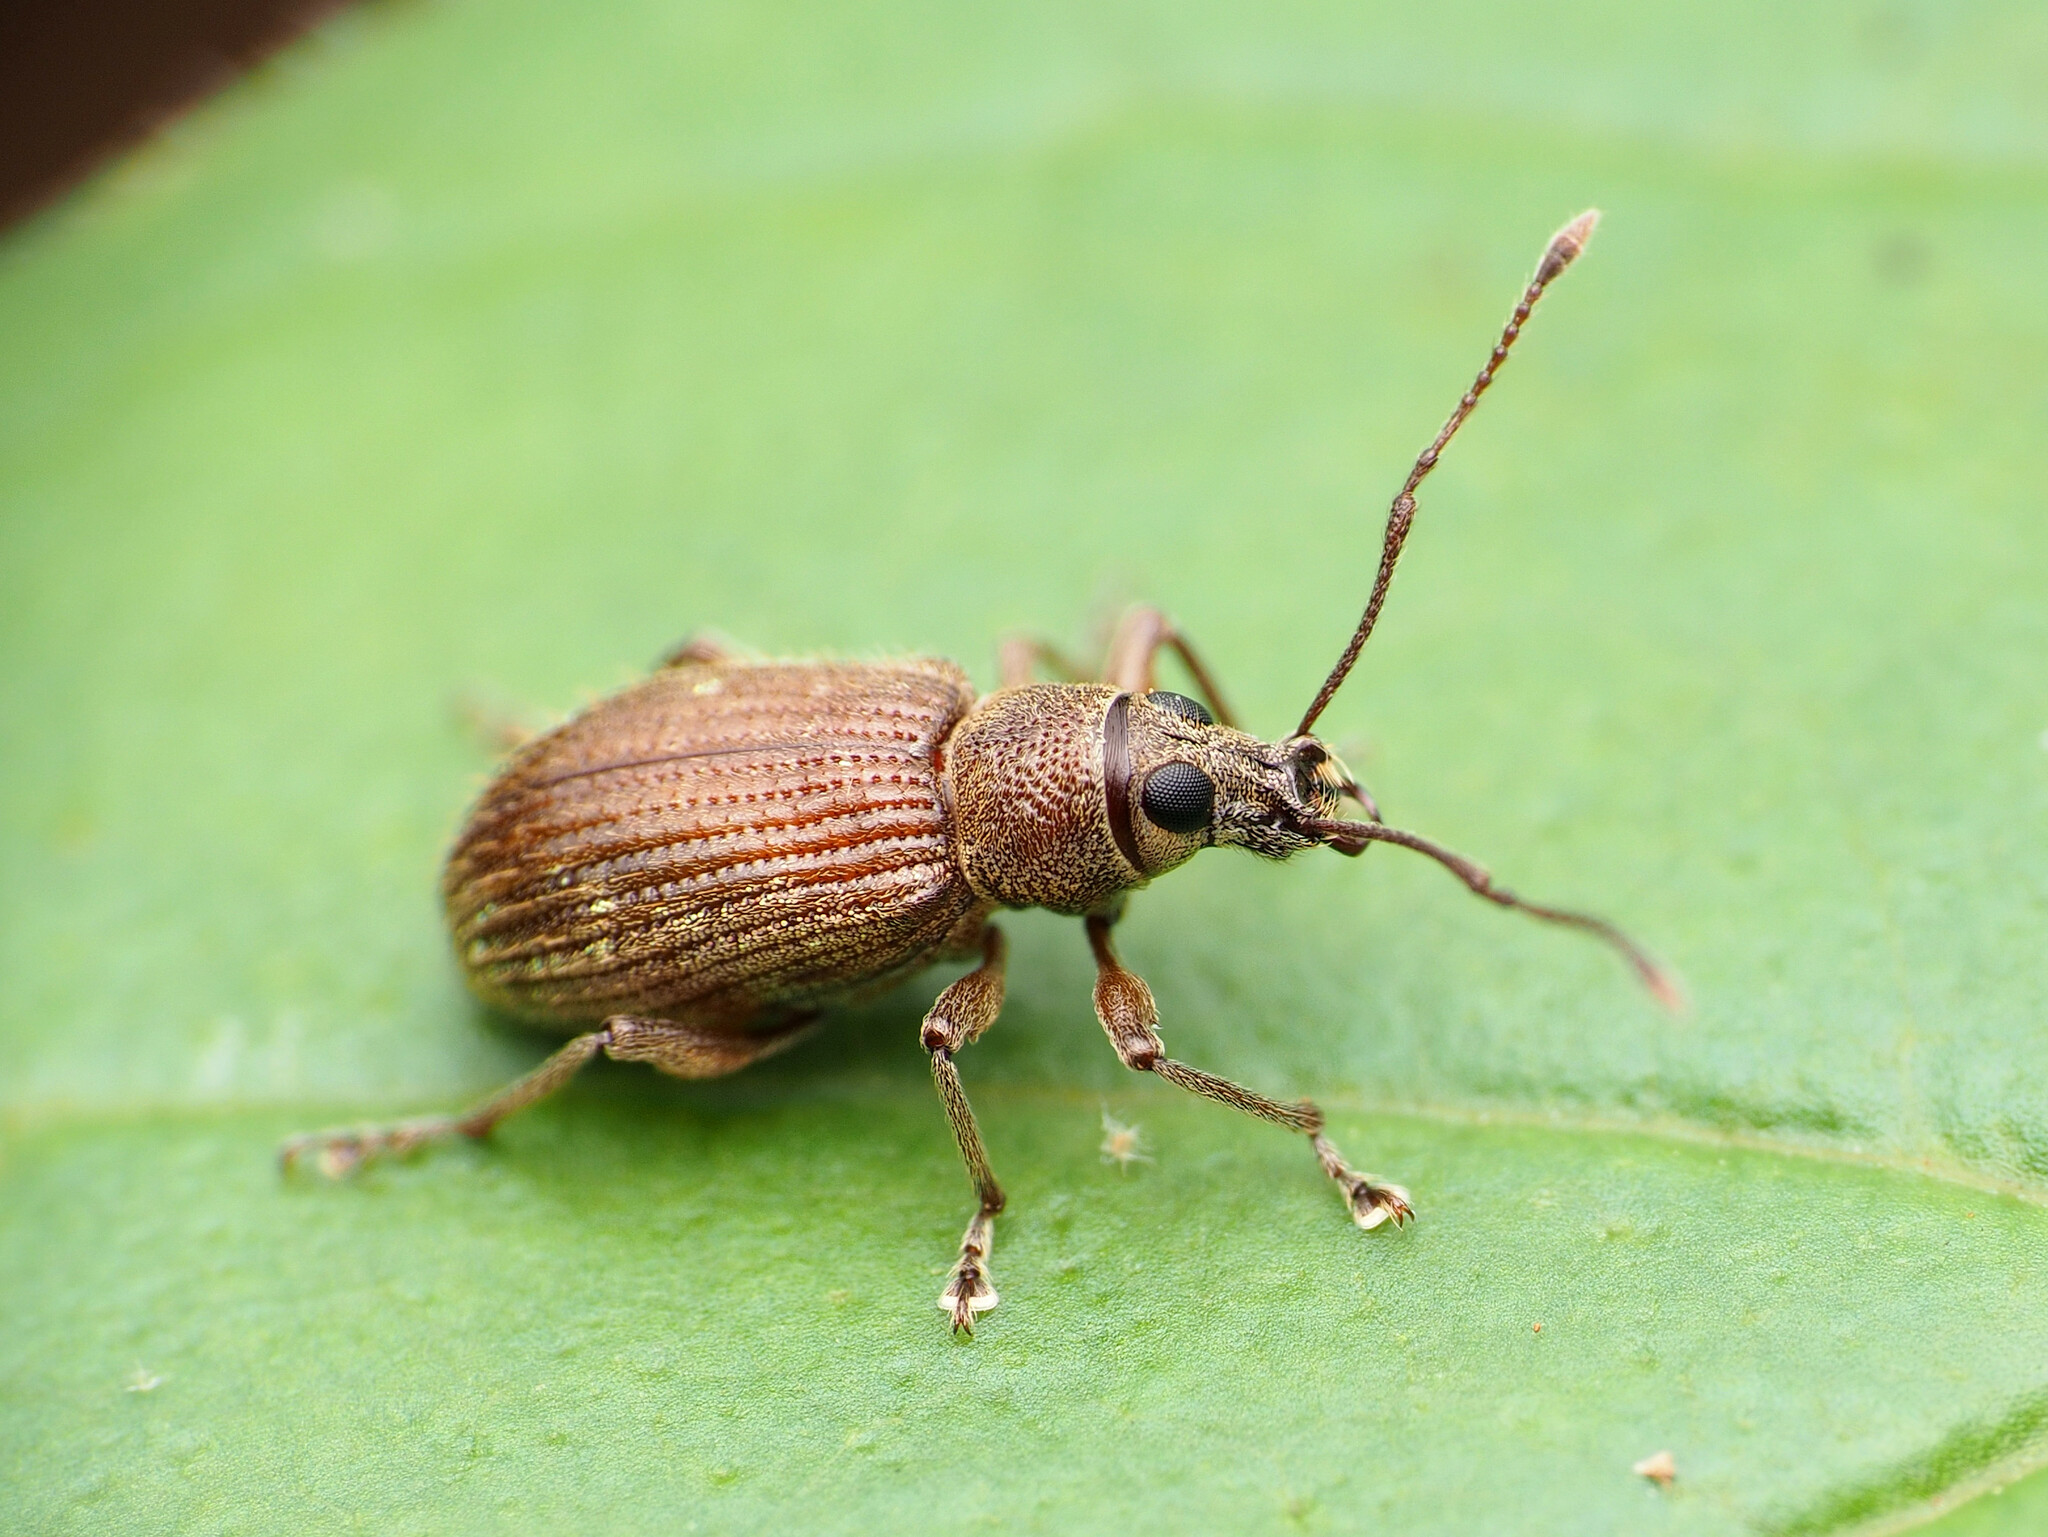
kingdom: Animalia
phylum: Arthropoda
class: Insecta
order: Coleoptera
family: Curculionidae
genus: Cyrtepistomus
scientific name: Cyrtepistomus castaneus
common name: Weevil
